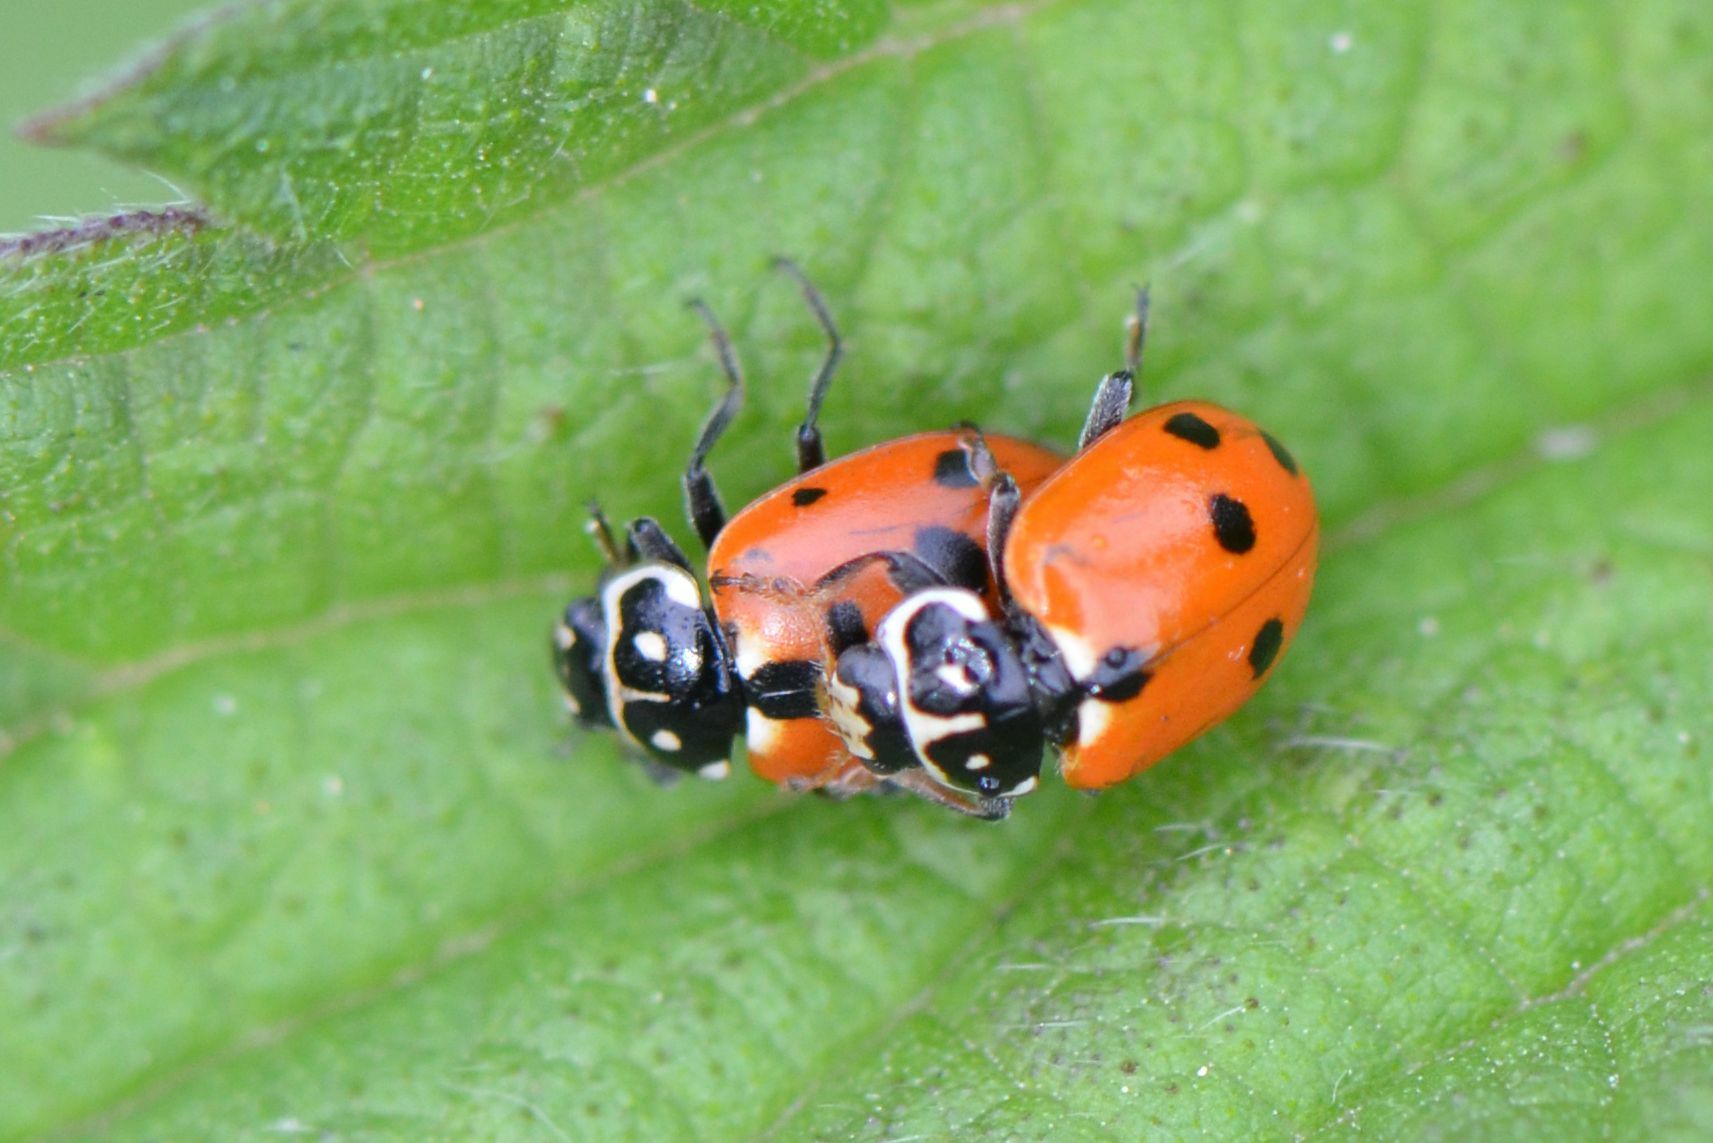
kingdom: Animalia
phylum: Arthropoda
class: Insecta
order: Coleoptera
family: Coccinellidae
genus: Hippodamia
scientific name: Hippodamia variegata
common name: Ladybird beetle
